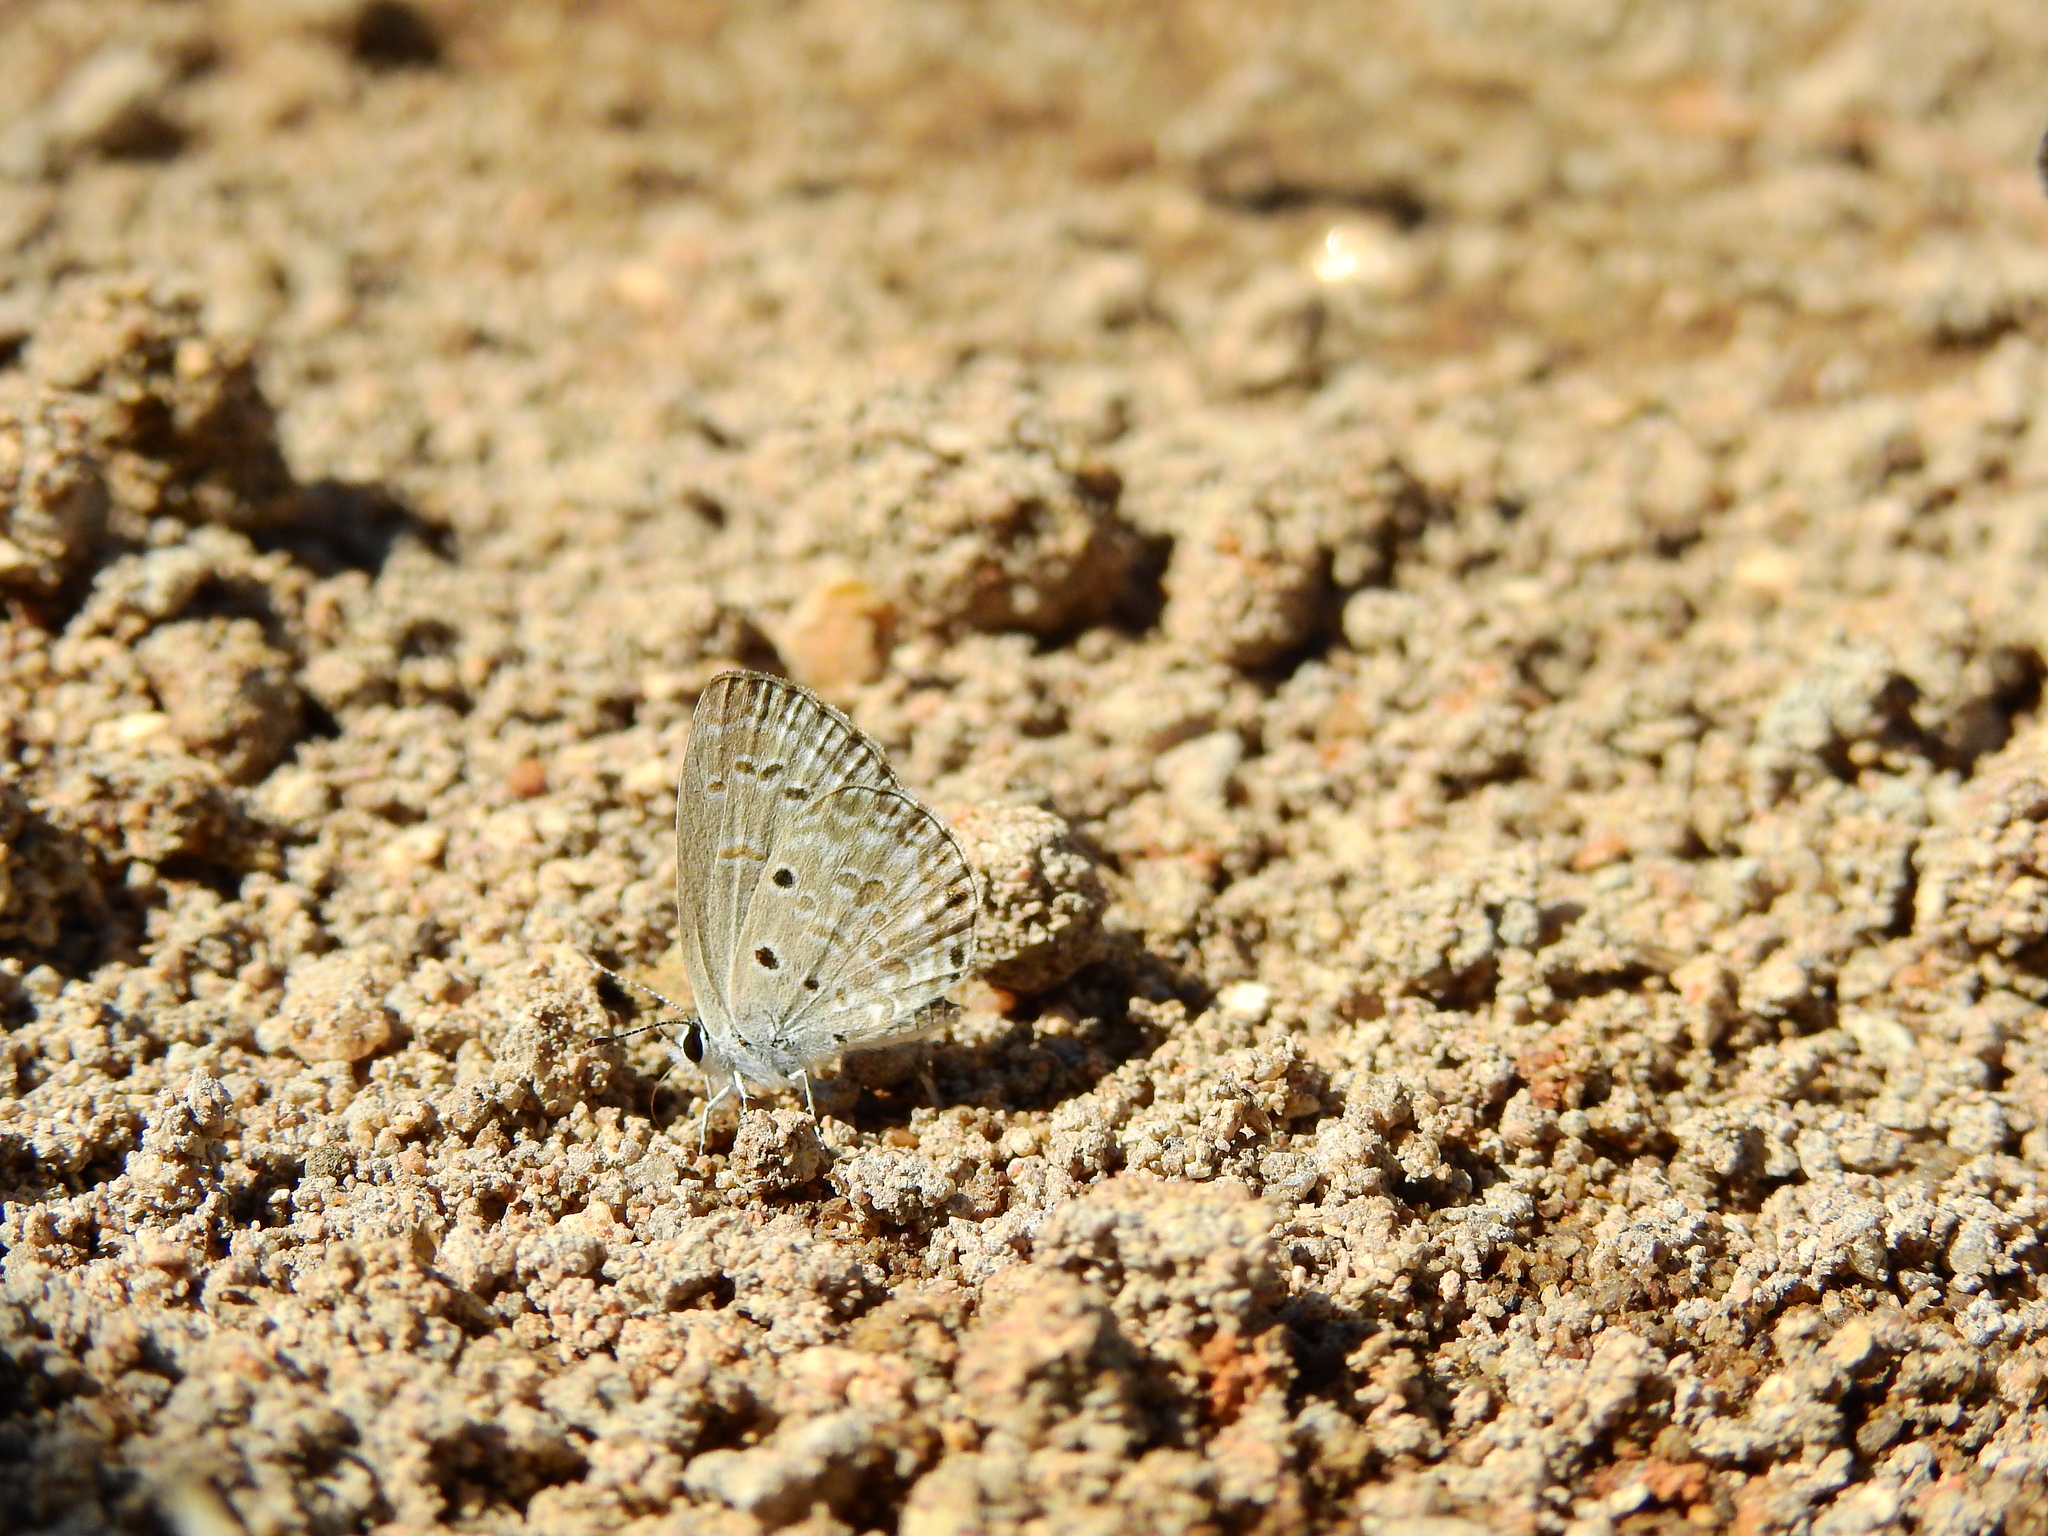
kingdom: Animalia
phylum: Arthropoda
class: Insecta
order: Lepidoptera
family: Lycaenidae
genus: Chilades
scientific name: Chilades laius
